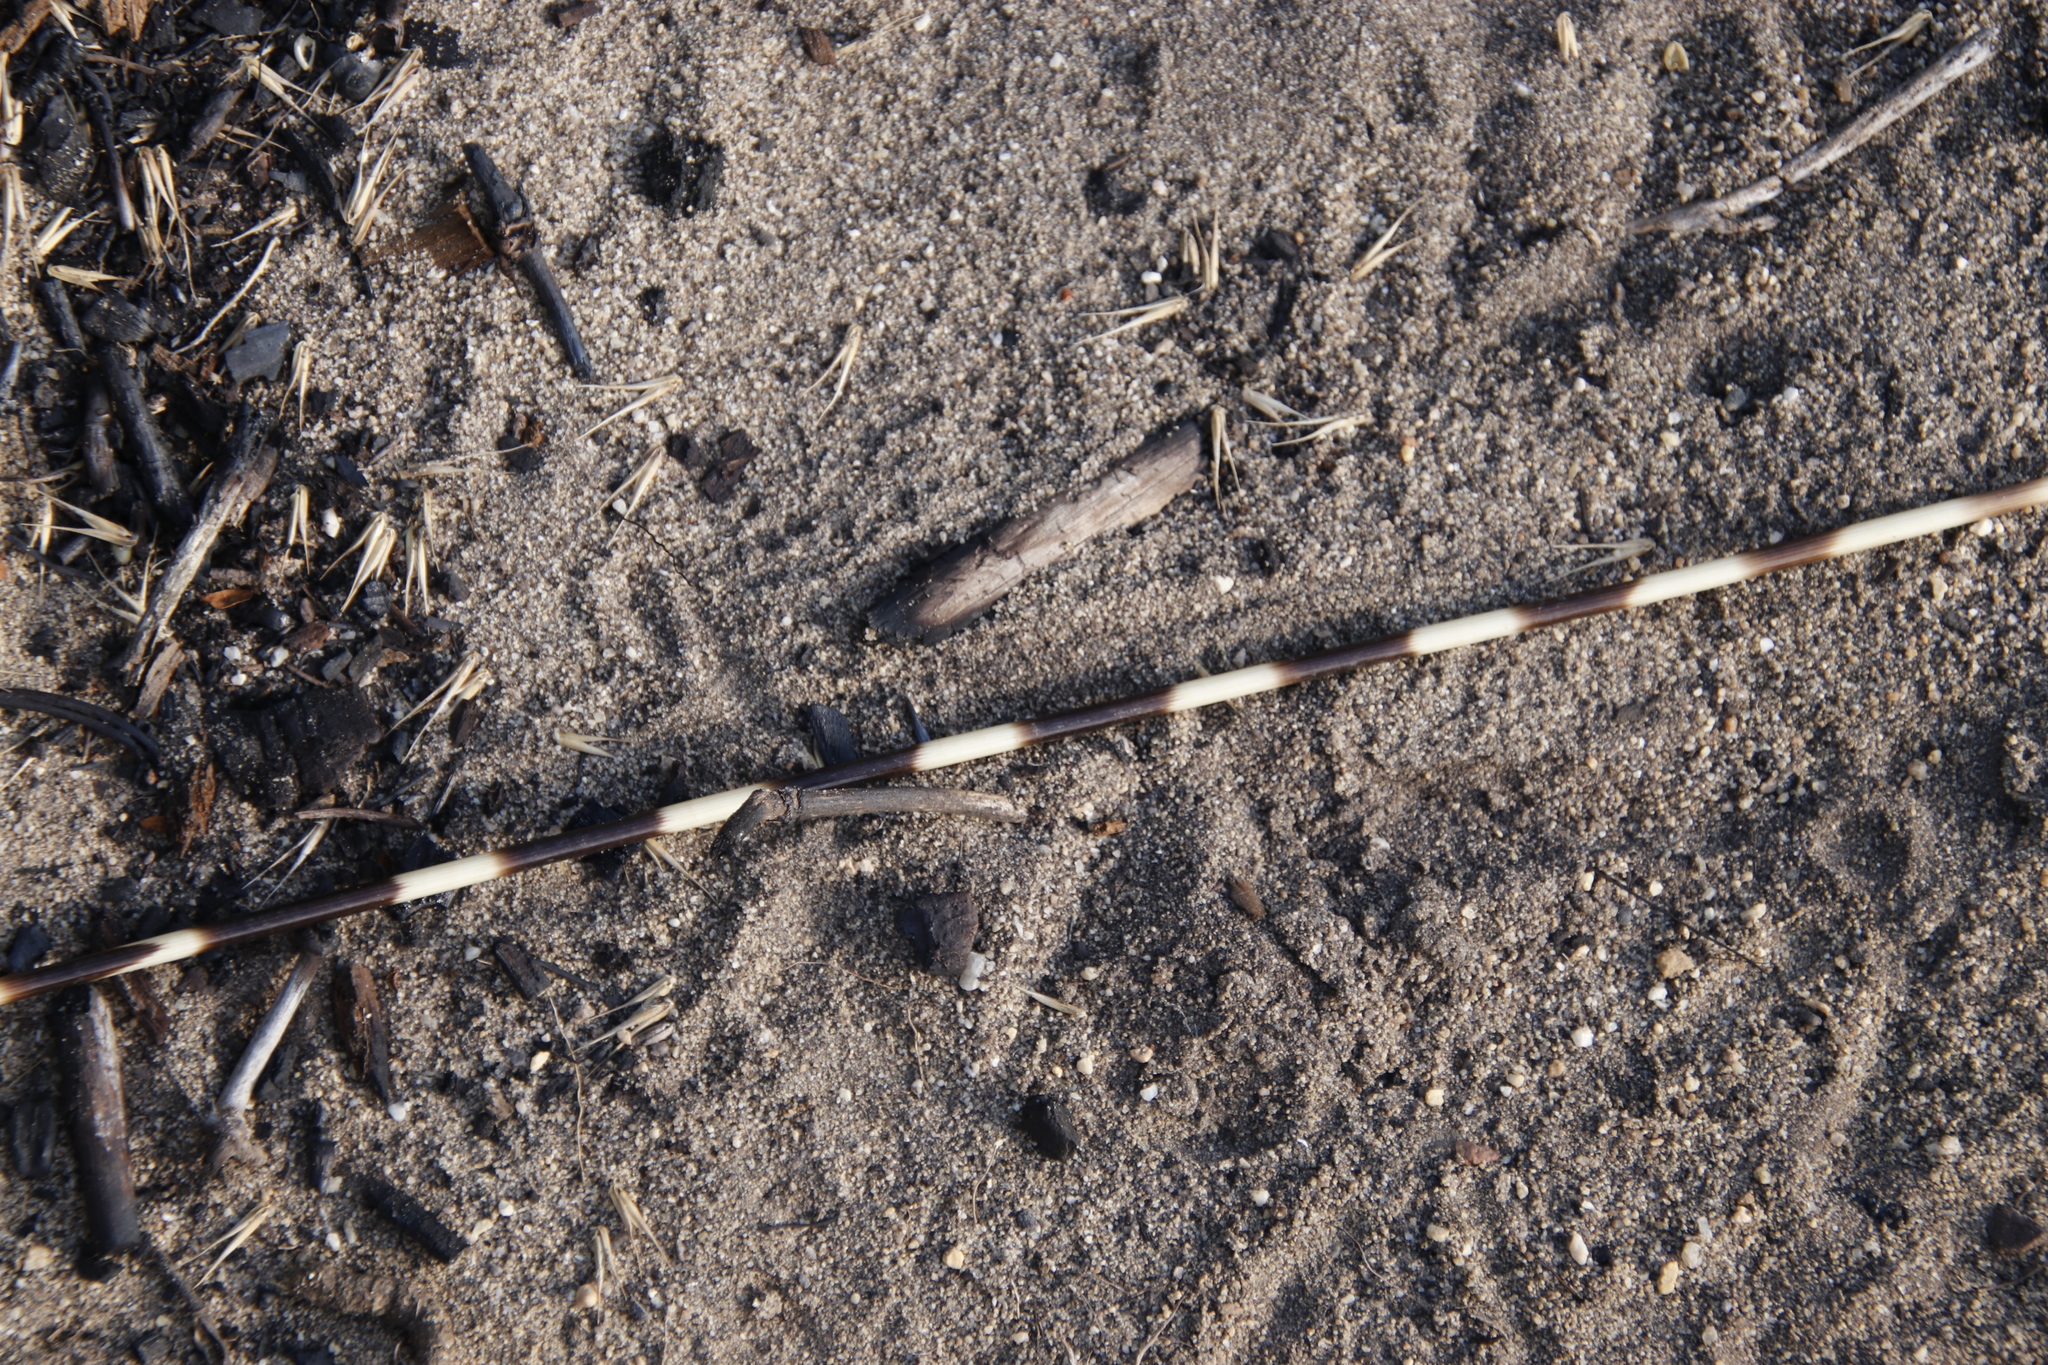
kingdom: Animalia
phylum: Chordata
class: Mammalia
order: Rodentia
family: Hystricidae
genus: Hystrix
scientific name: Hystrix africaeaustralis
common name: Cape porcupine
